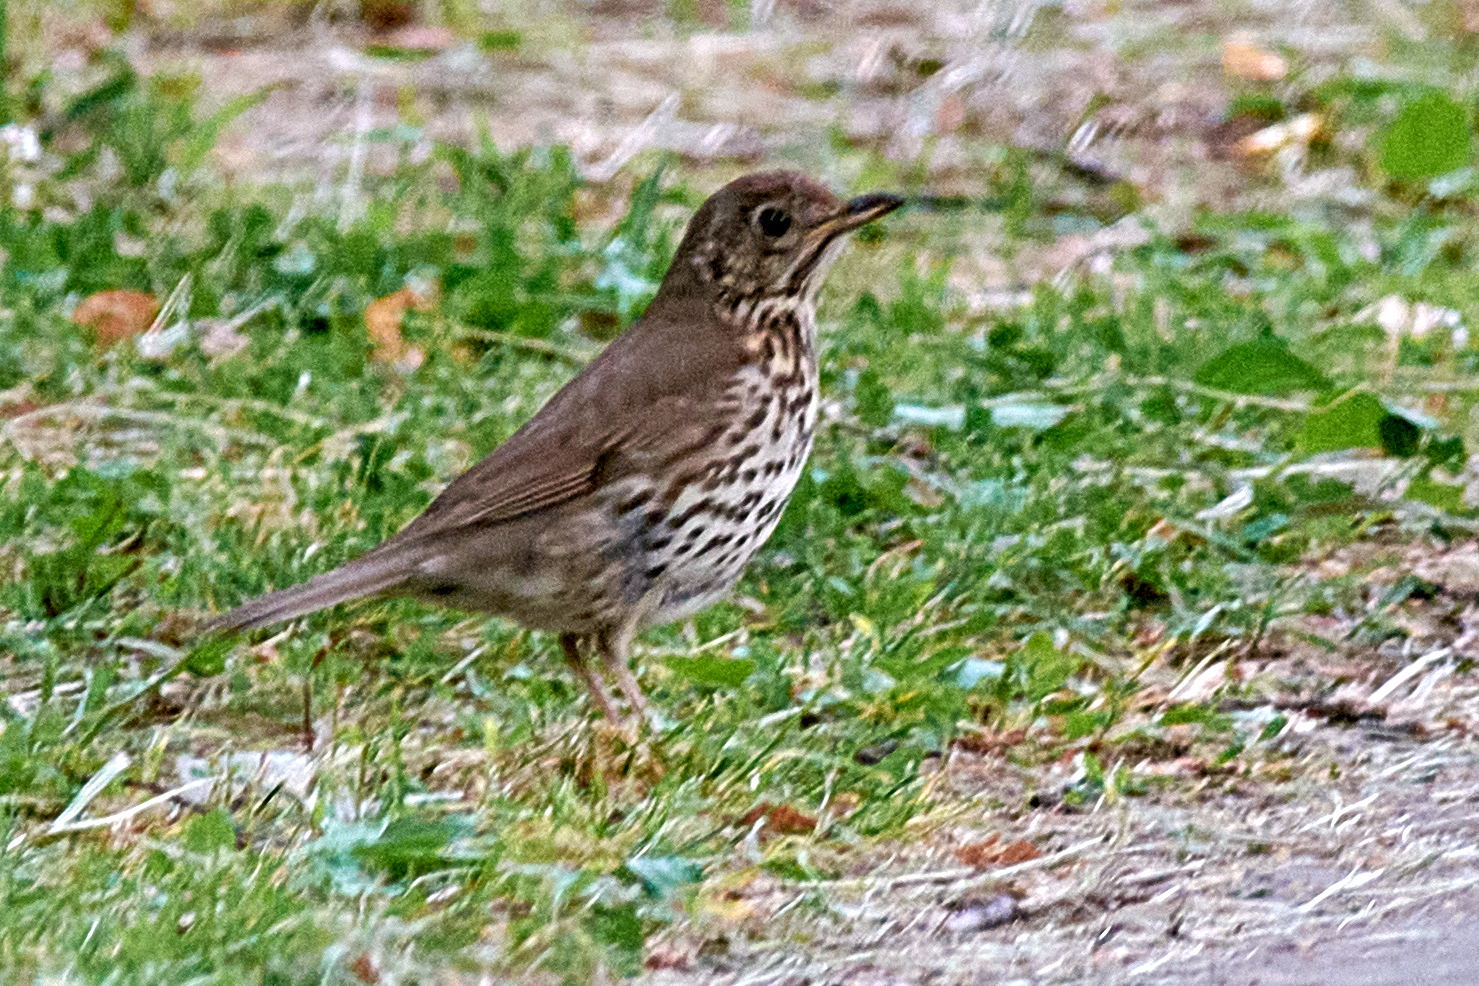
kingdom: Animalia
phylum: Chordata
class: Aves
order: Passeriformes
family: Turdidae
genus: Turdus
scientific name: Turdus philomelos
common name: Song thrush
